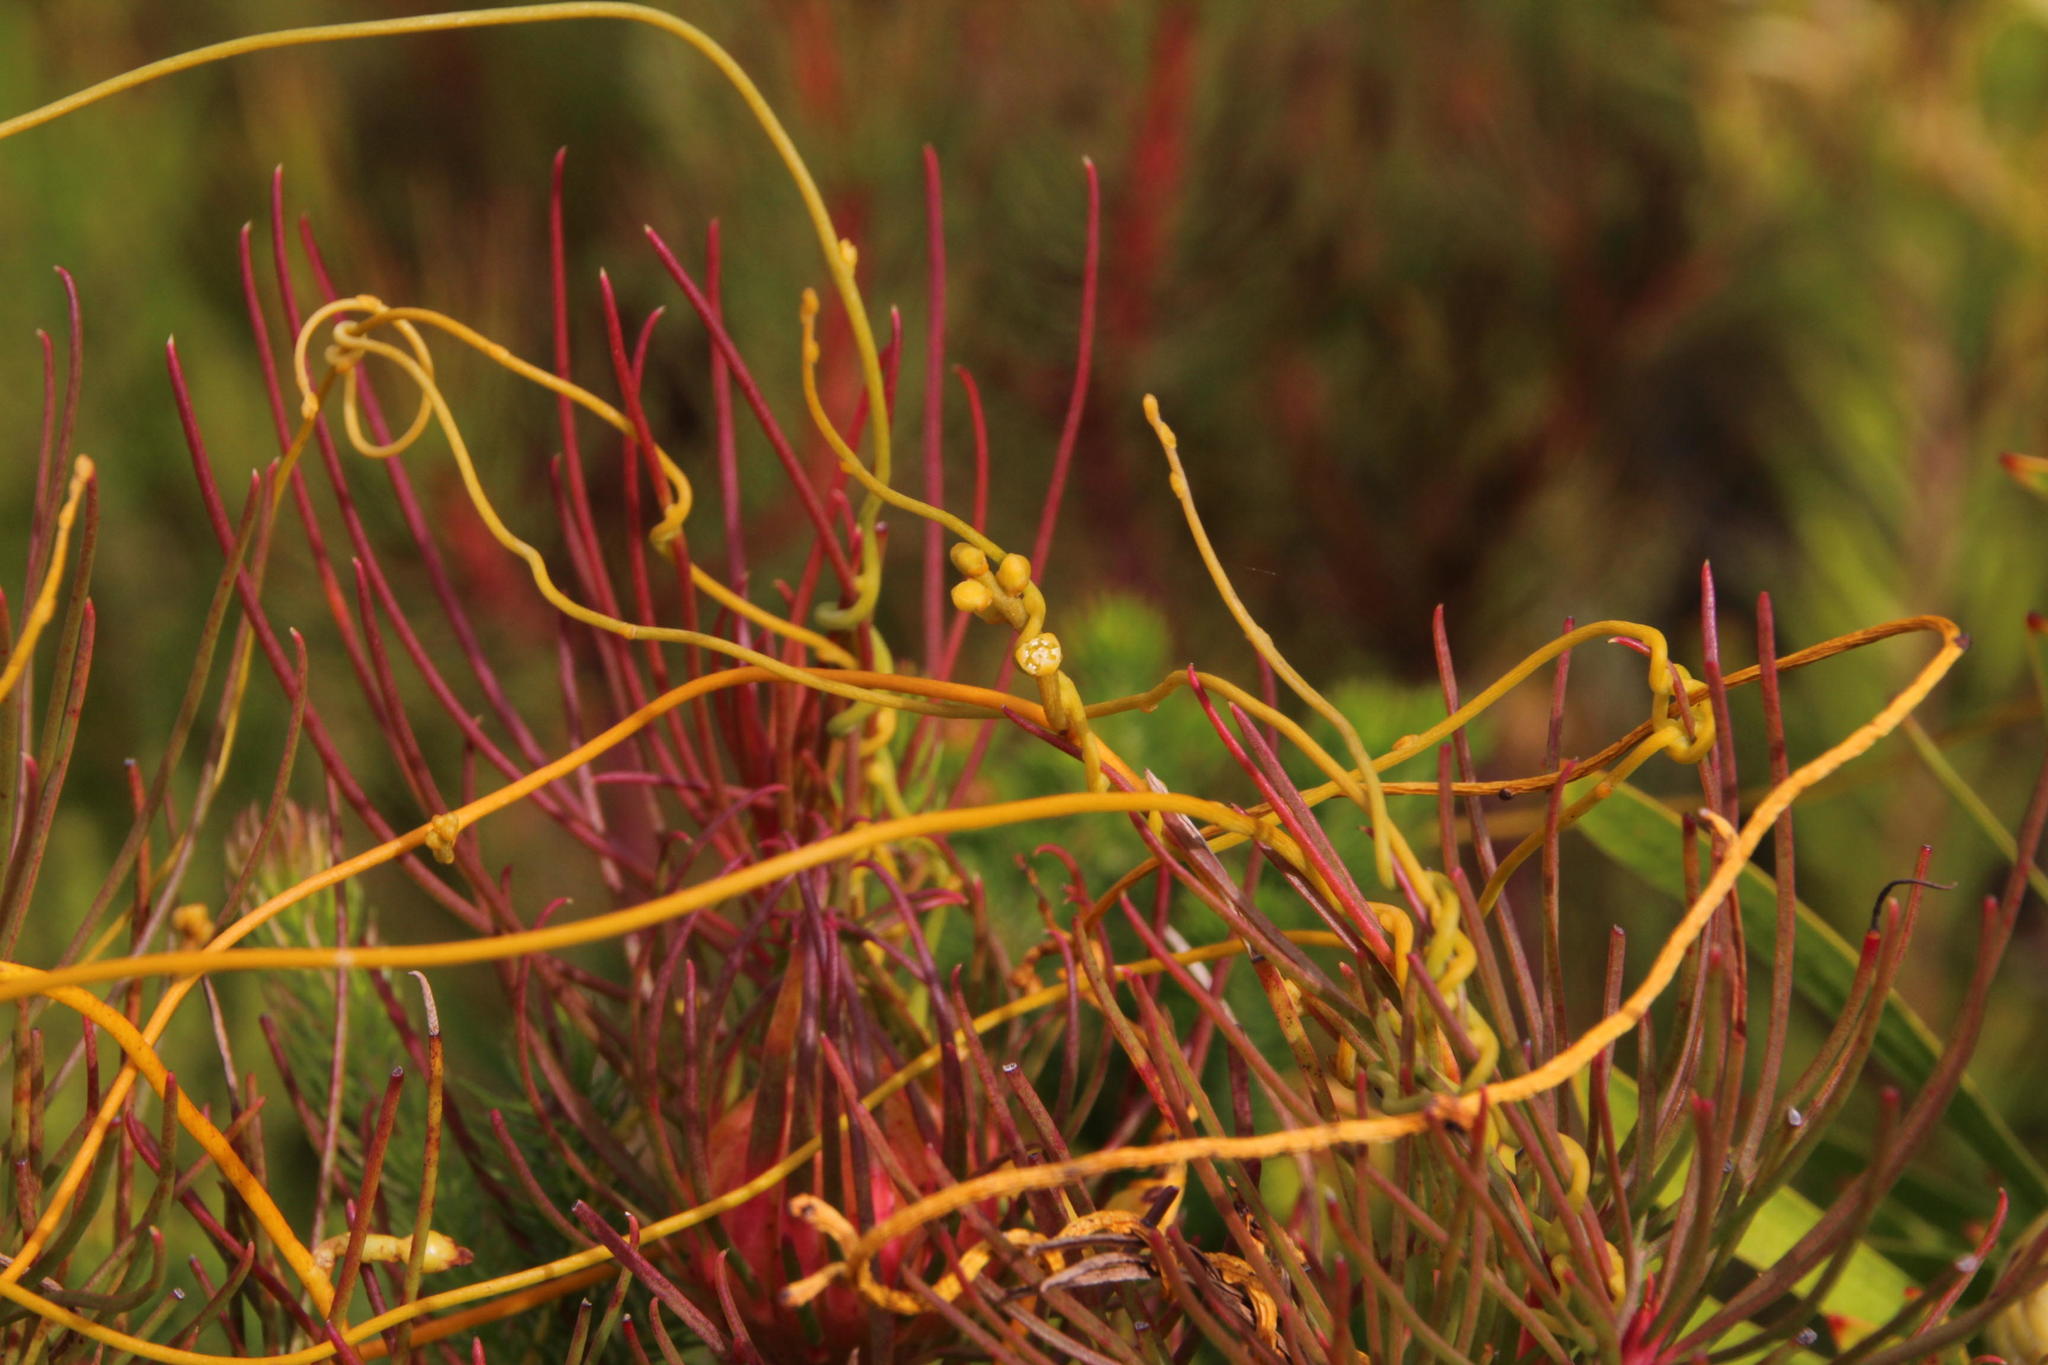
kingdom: Plantae
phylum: Tracheophyta
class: Magnoliopsida
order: Laurales
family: Lauraceae
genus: Cassytha
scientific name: Cassytha ciliolata
